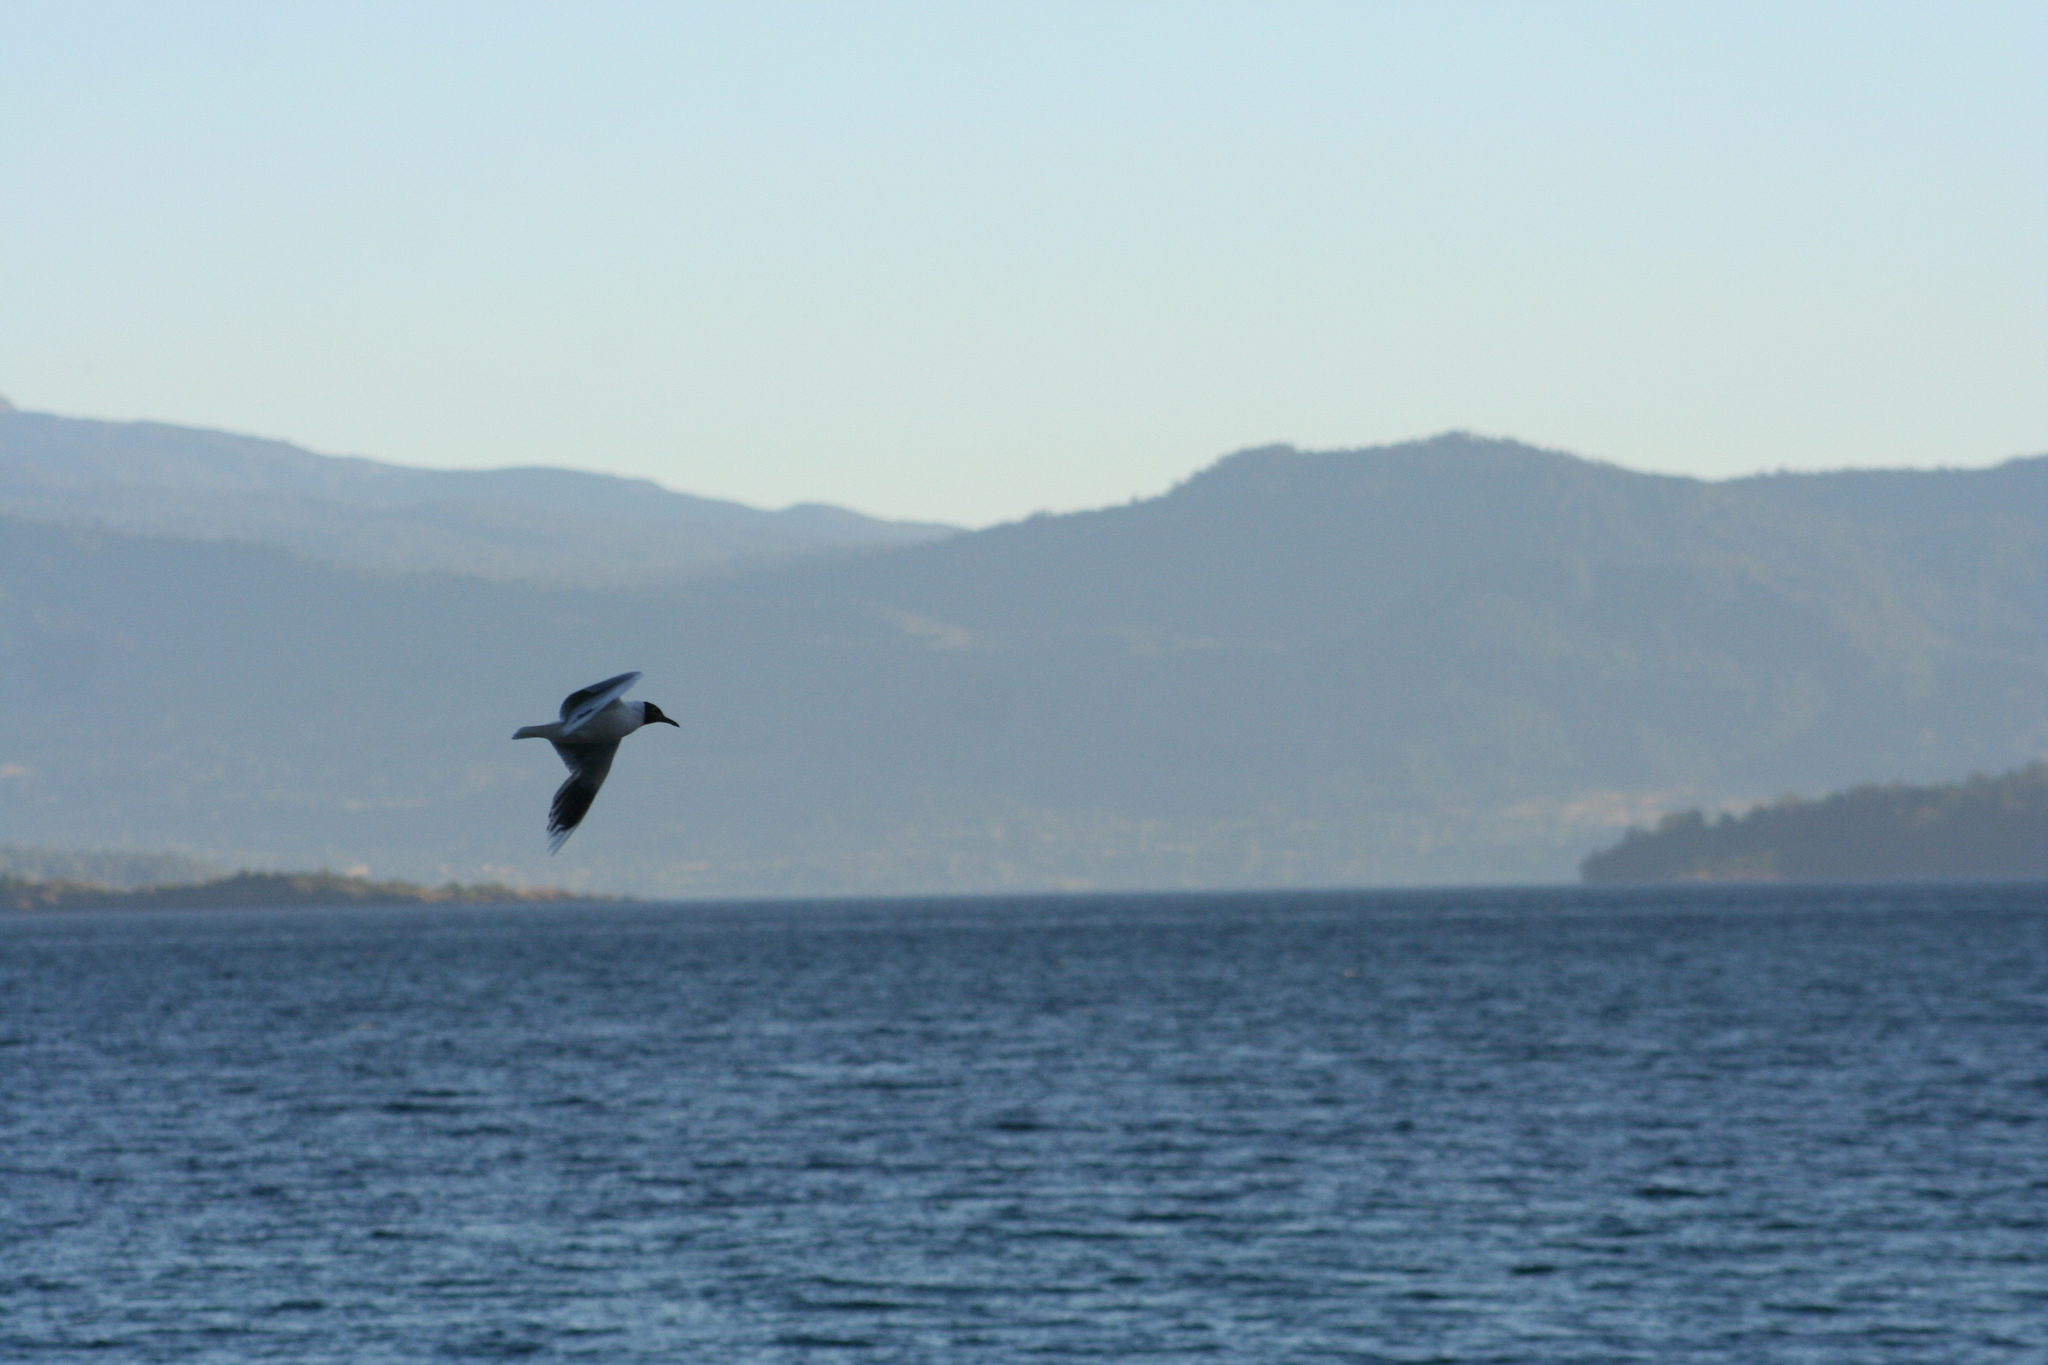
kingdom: Animalia
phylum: Chordata
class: Aves
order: Charadriiformes
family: Laridae
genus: Chroicocephalus
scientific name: Chroicocephalus maculipennis
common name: Brown-hooded gull
